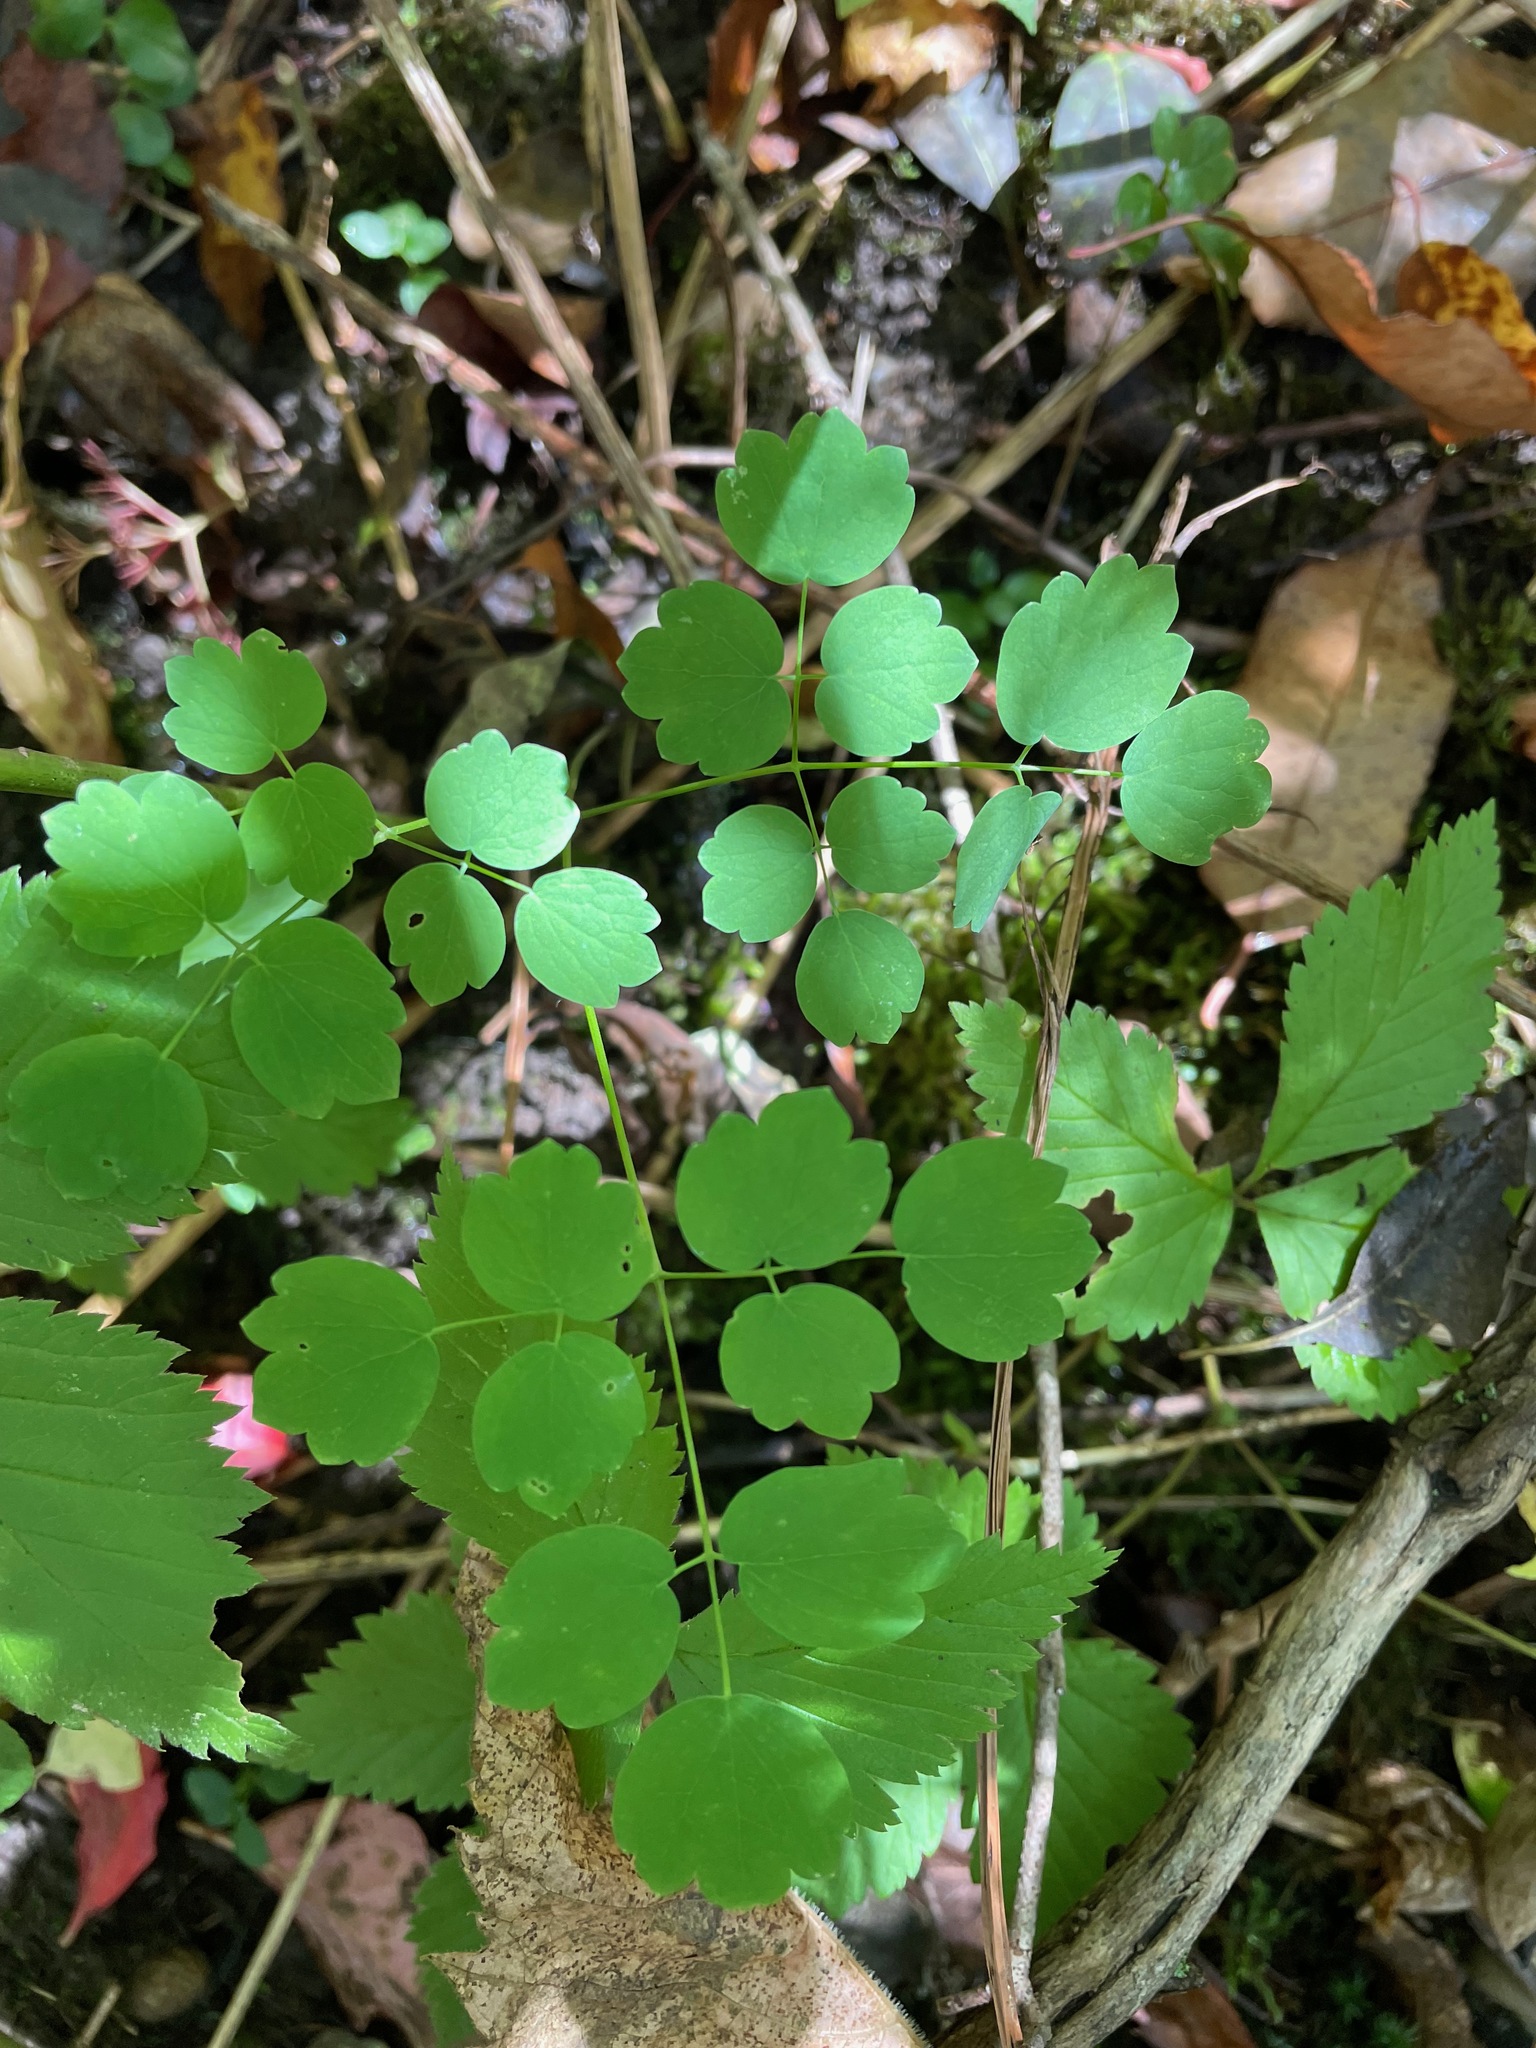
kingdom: Plantae
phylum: Tracheophyta
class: Magnoliopsida
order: Ranunculales
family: Ranunculaceae
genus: Thalictrum
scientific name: Thalictrum dioicum
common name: Early meadow-rue
